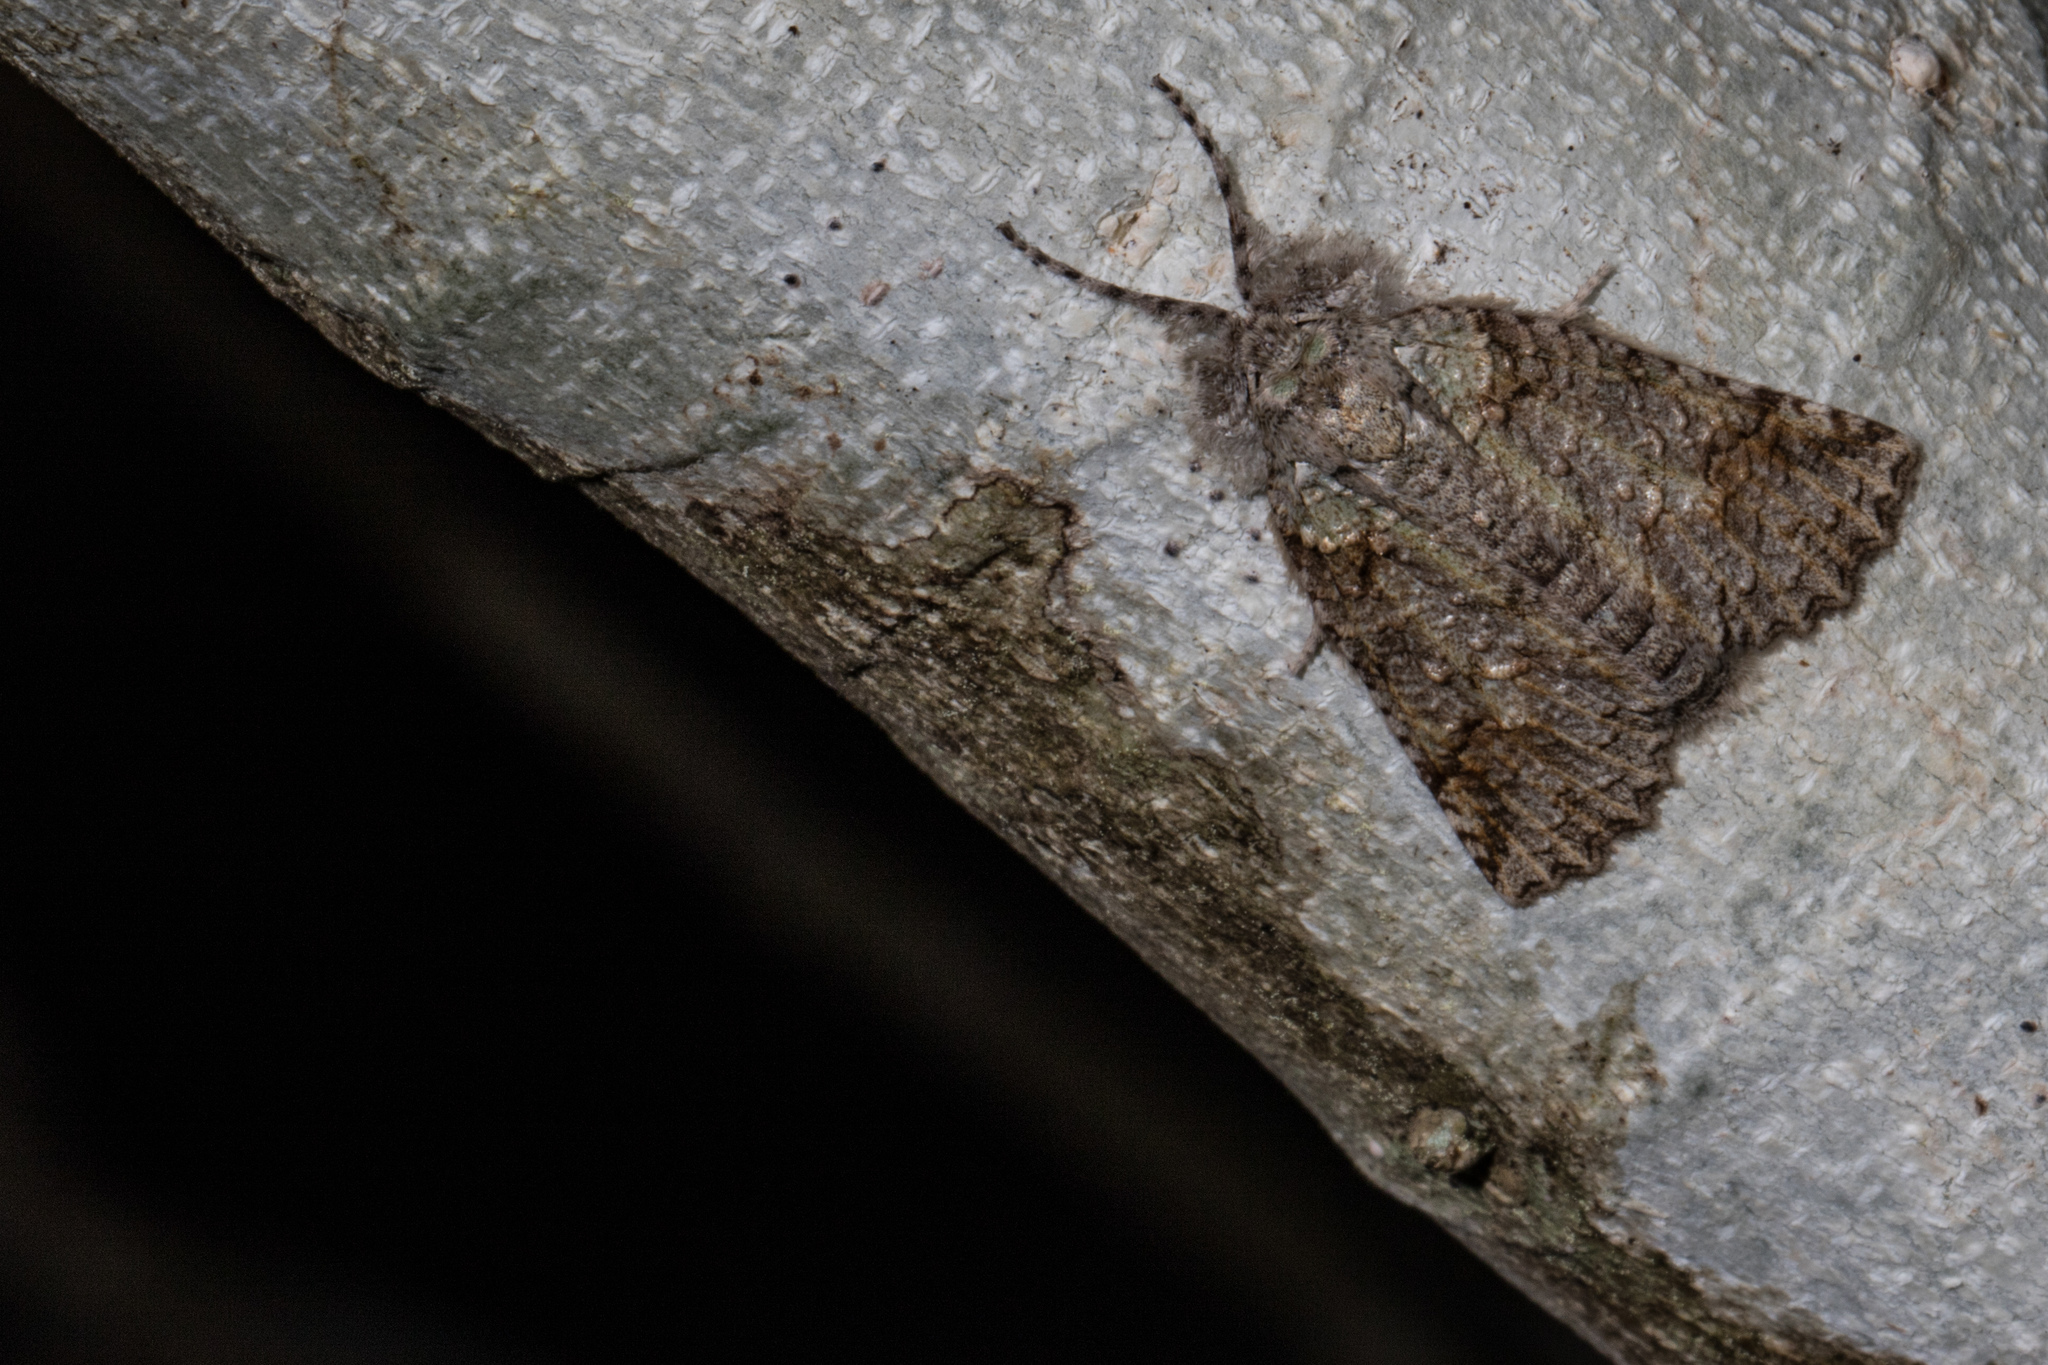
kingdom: Animalia
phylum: Arthropoda
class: Insecta
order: Lepidoptera
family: Geometridae
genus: Declana
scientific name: Declana floccosa
